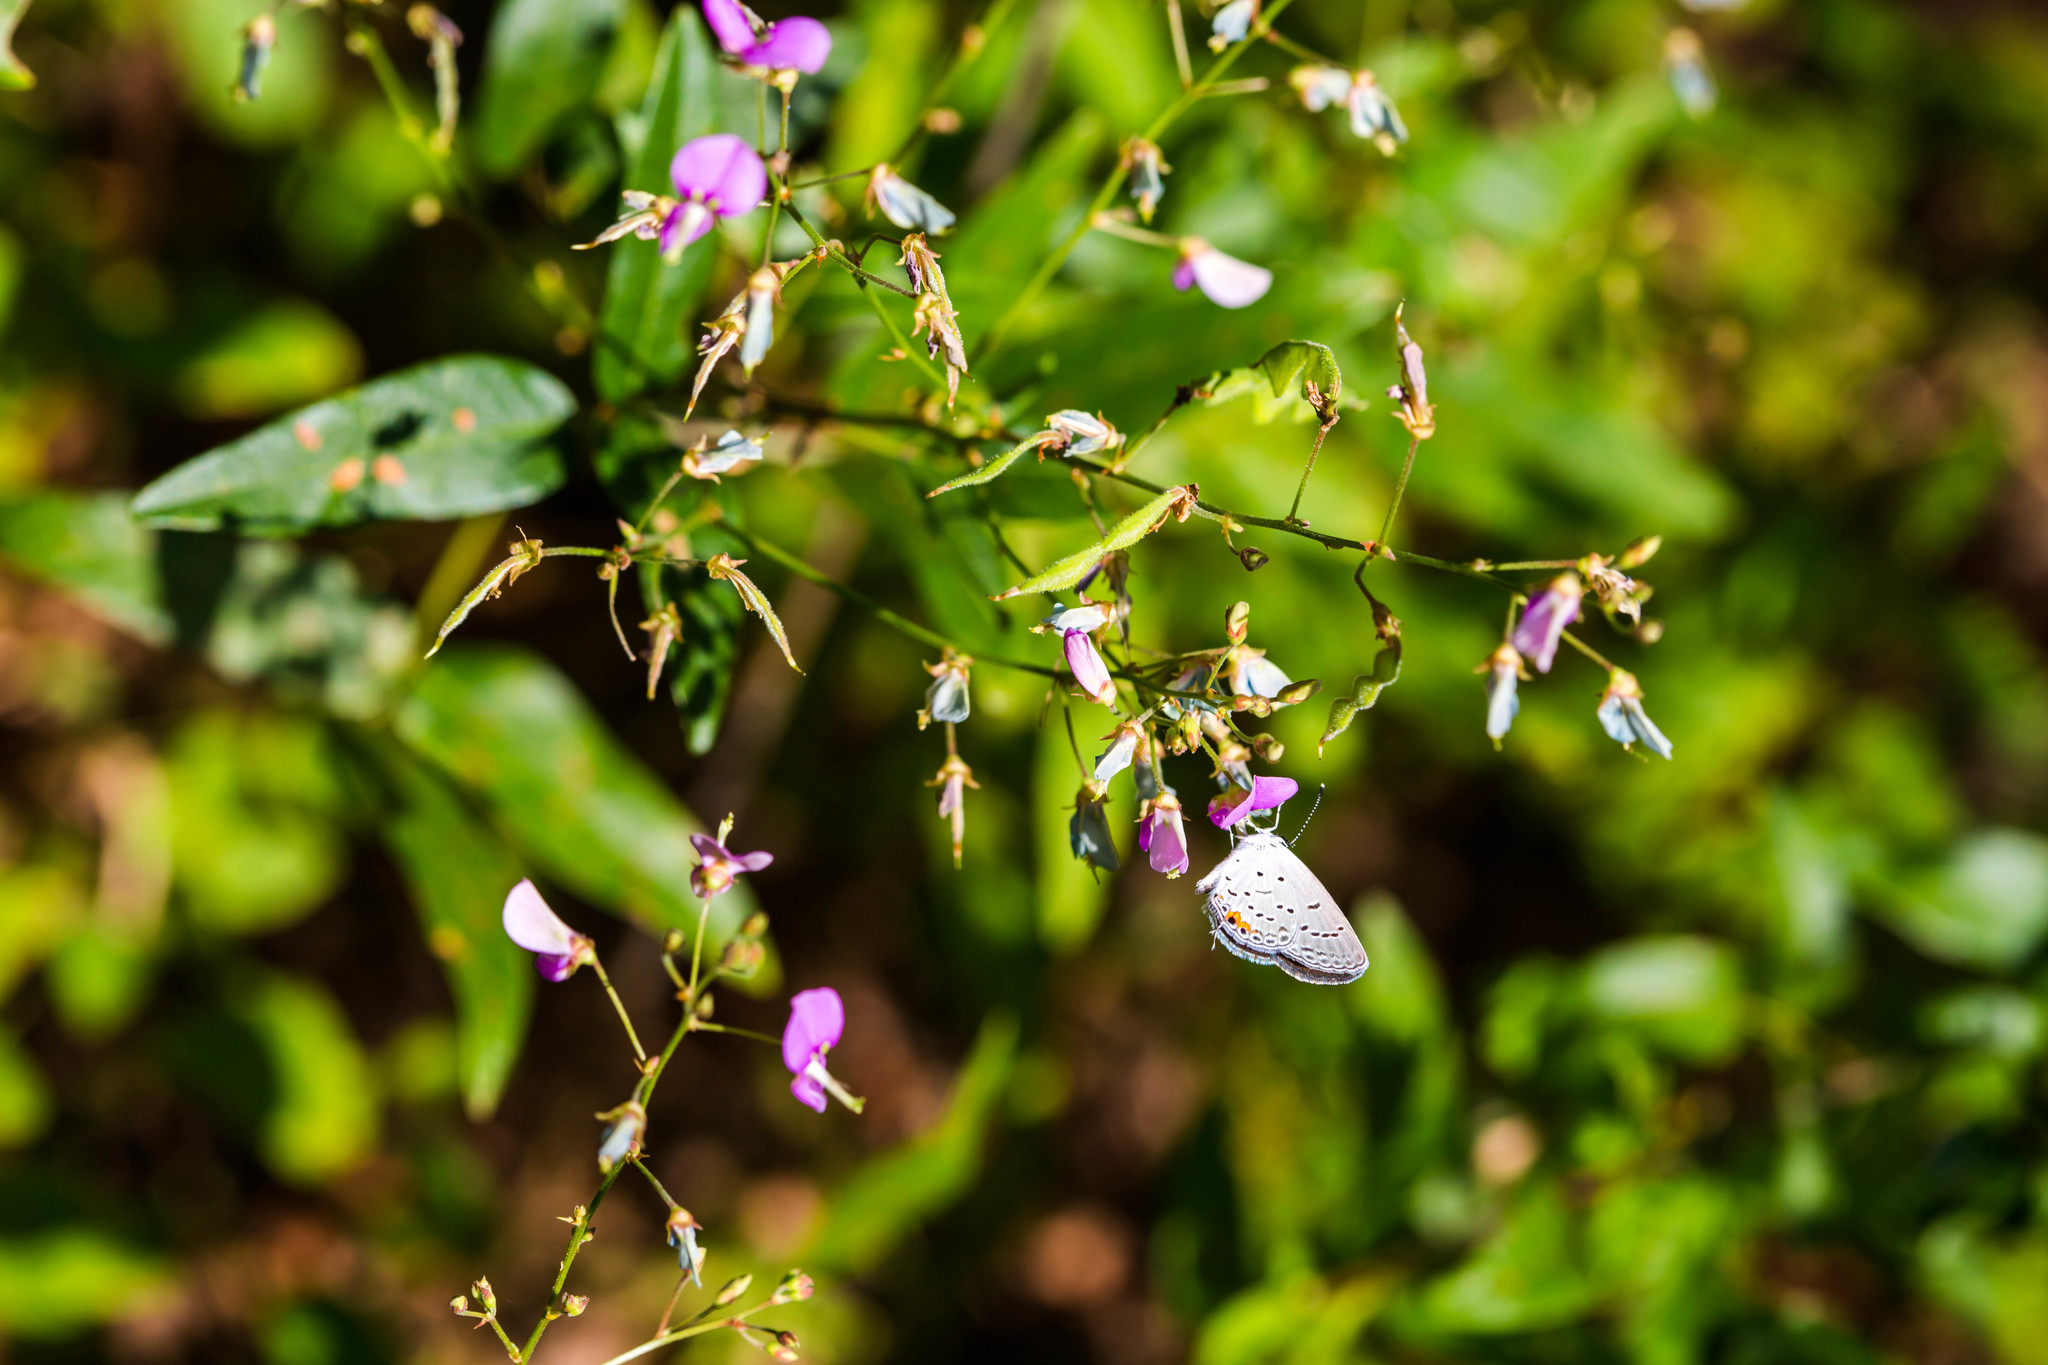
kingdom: Animalia
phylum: Arthropoda
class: Insecta
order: Lepidoptera
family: Lycaenidae
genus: Elkalyce
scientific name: Elkalyce comyntas
